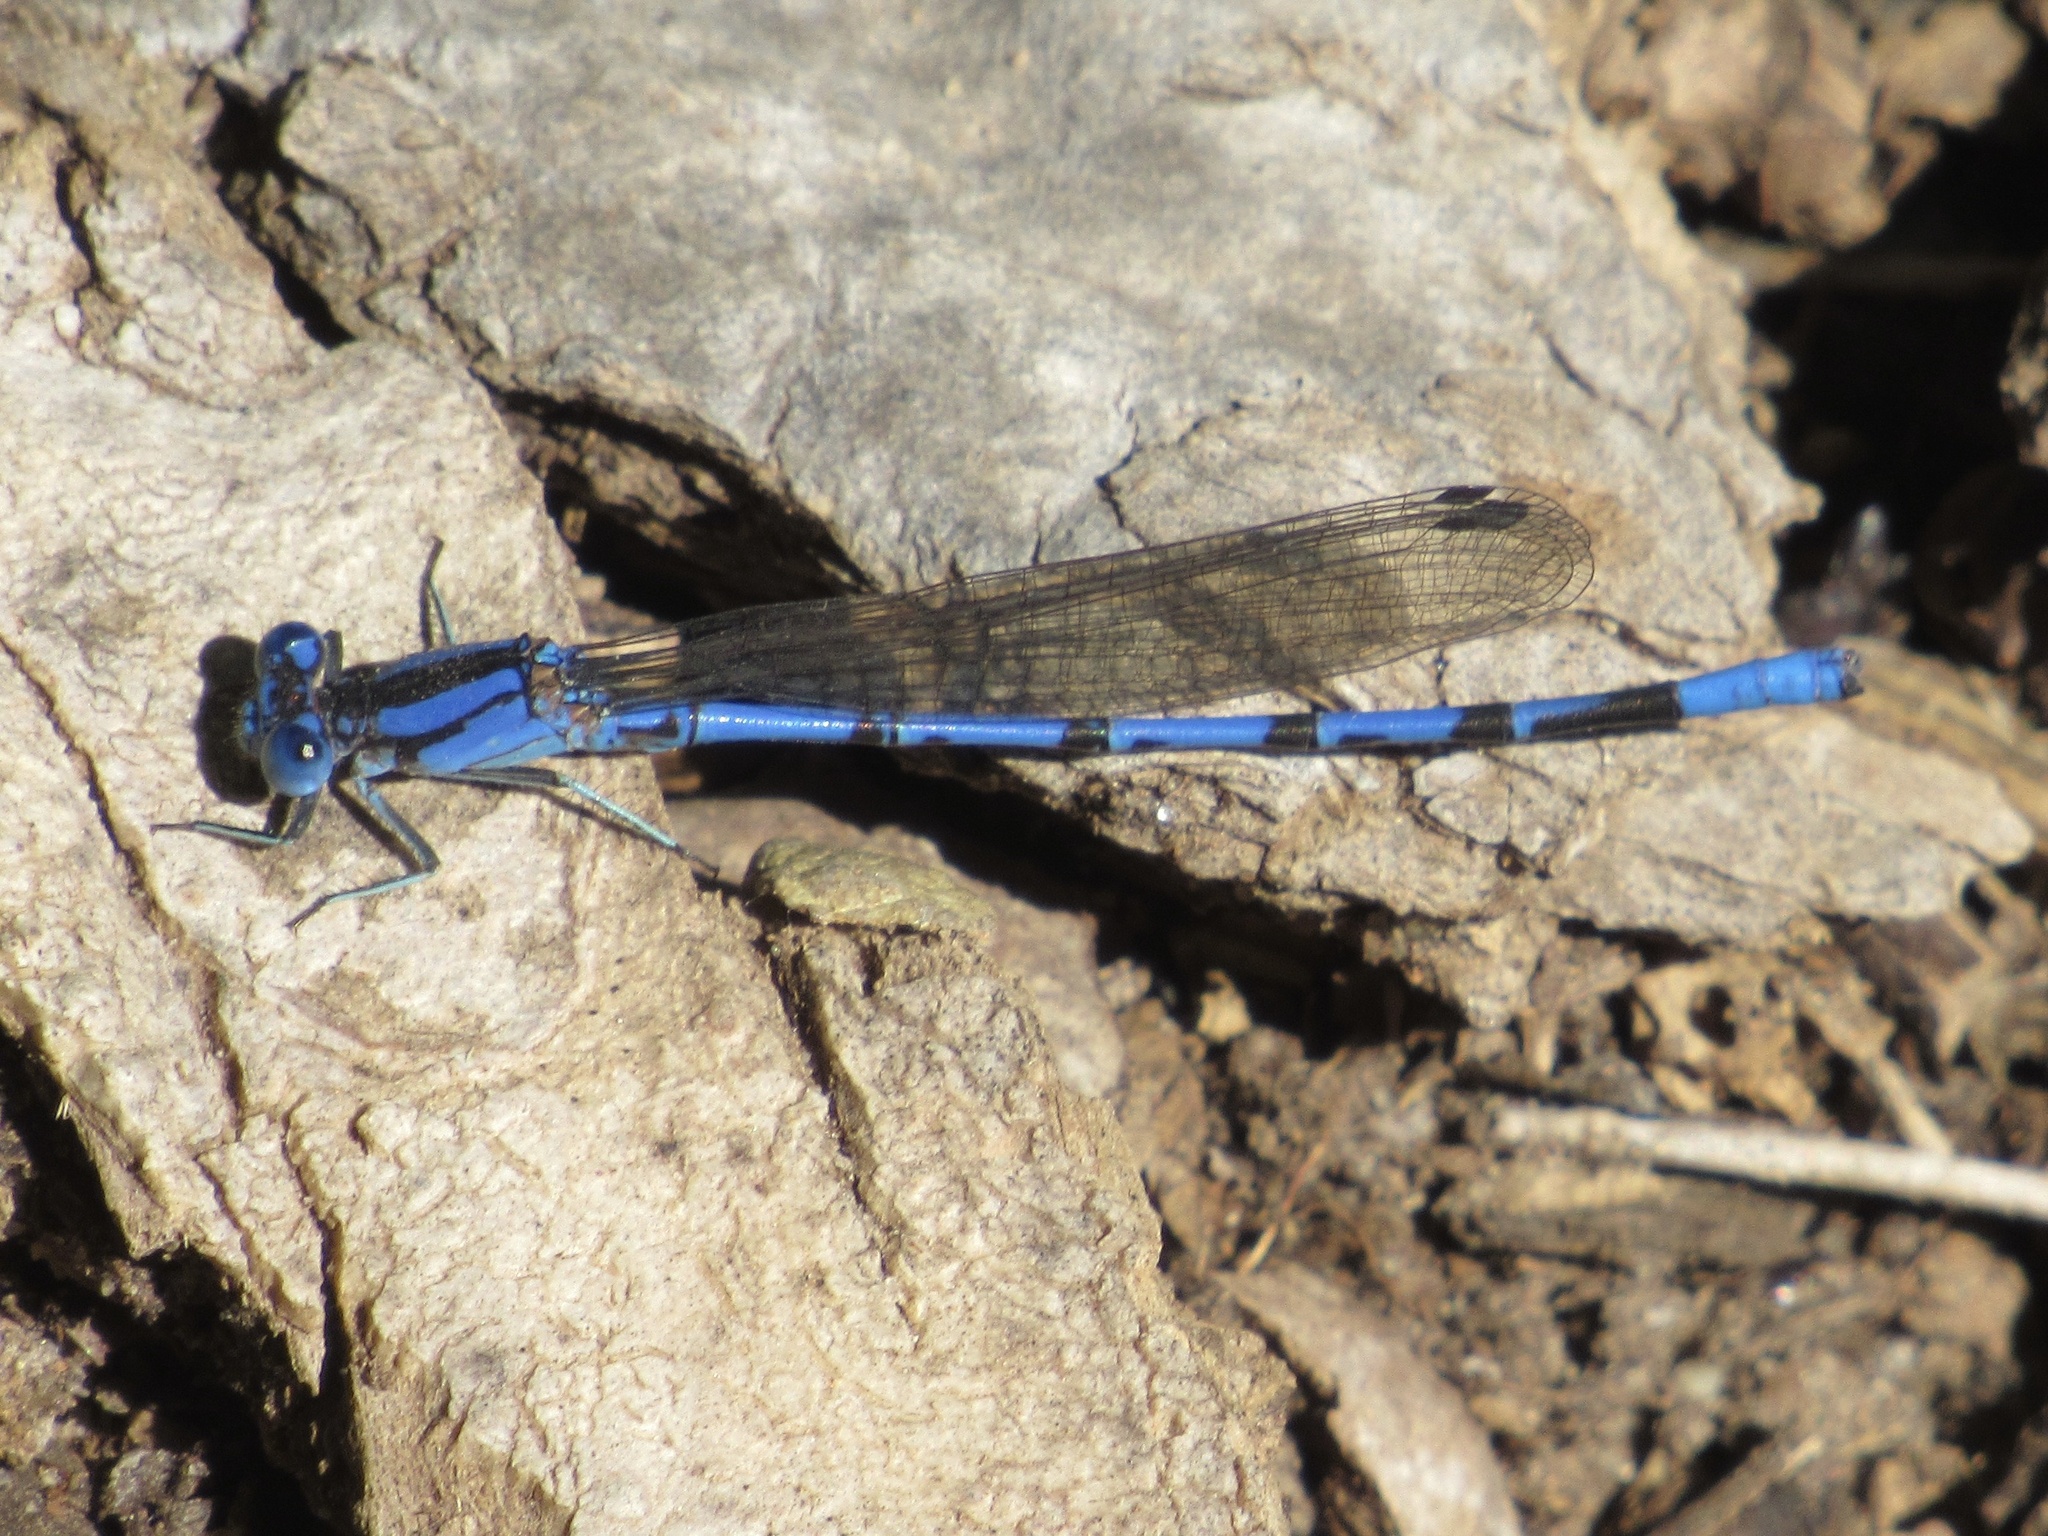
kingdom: Animalia
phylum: Arthropoda
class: Insecta
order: Odonata
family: Coenagrionidae
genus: Argia
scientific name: Argia funebris
